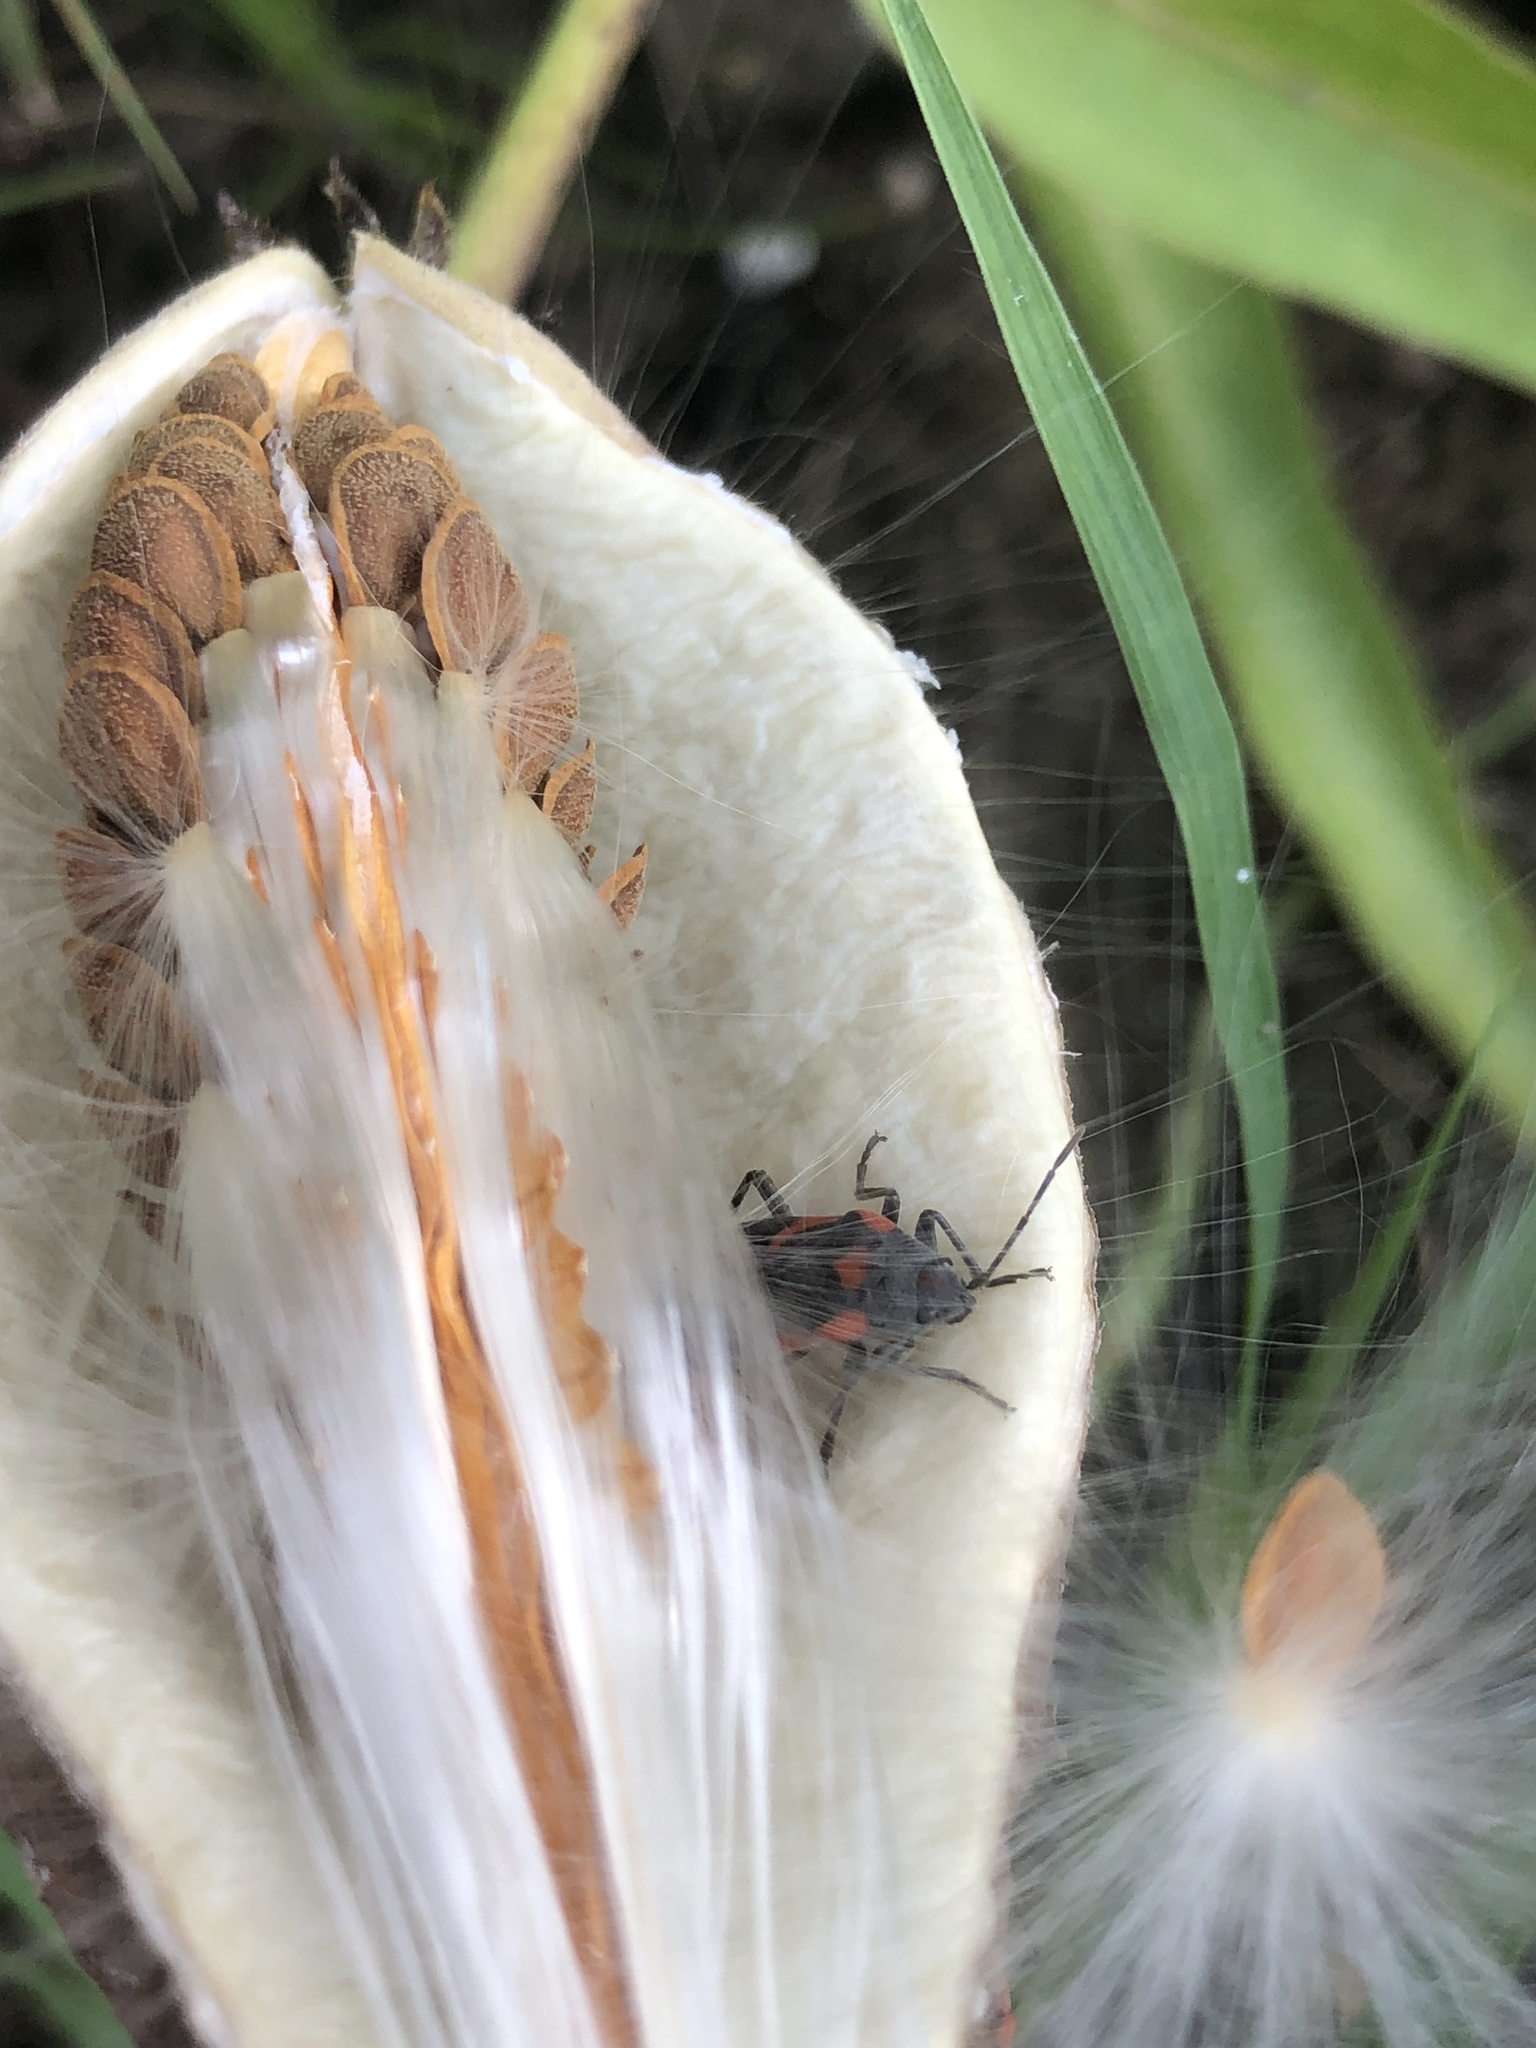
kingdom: Animalia
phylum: Arthropoda
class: Insecta
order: Hemiptera
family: Lygaeidae
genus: Lygaeus
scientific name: Lygaeus kalmii
